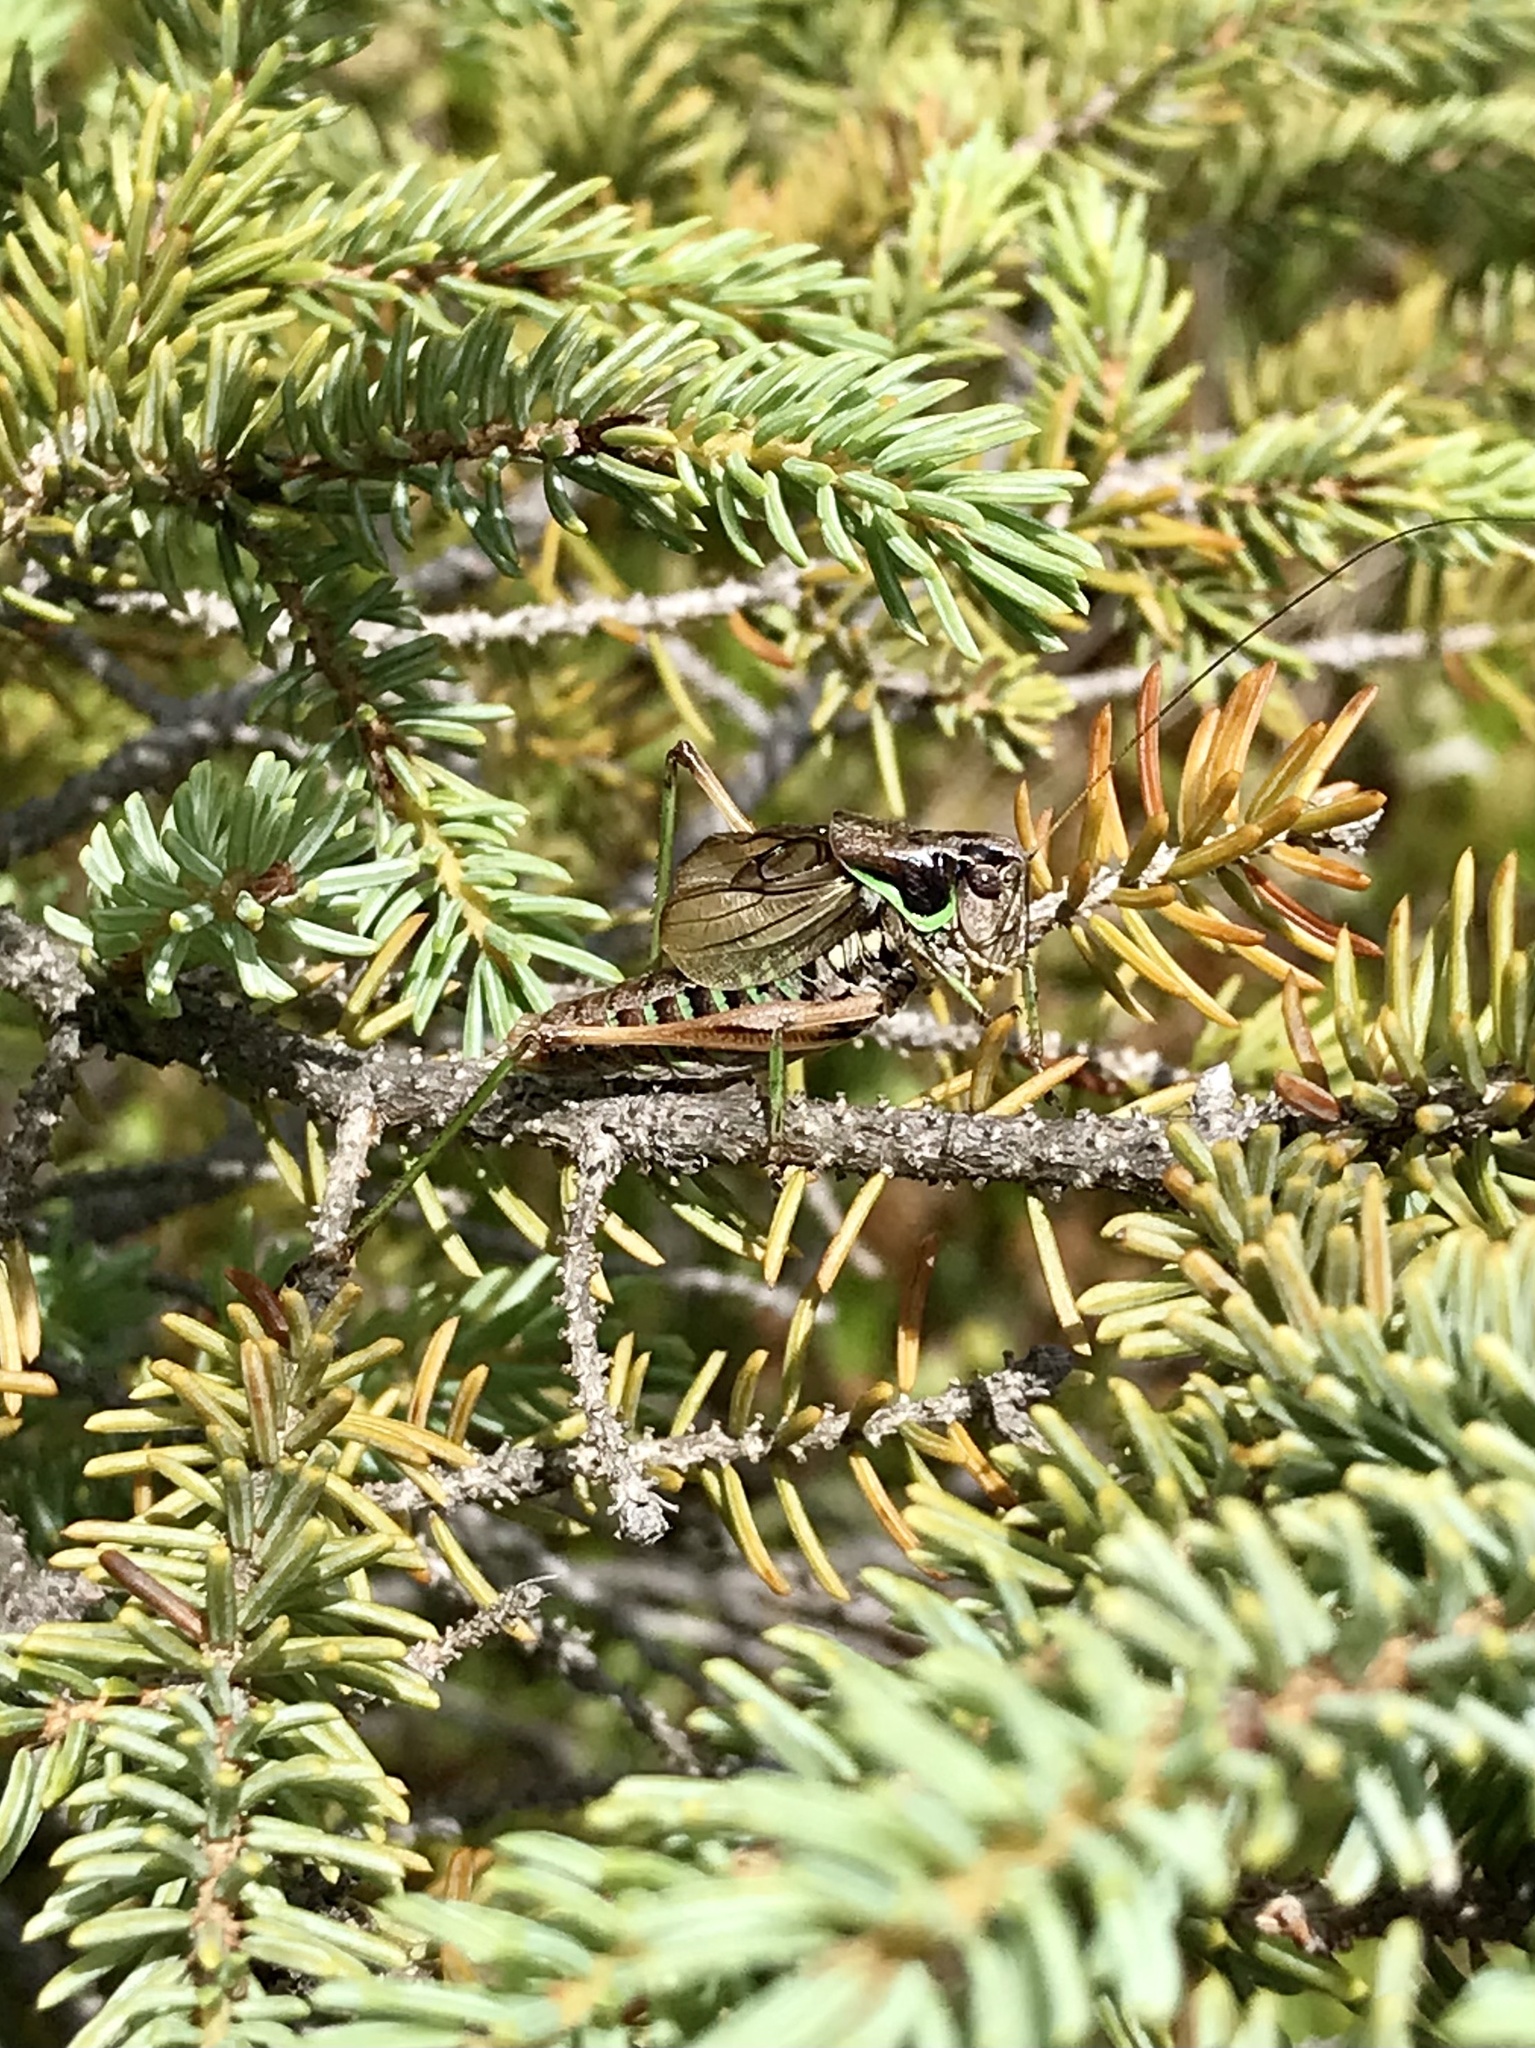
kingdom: Animalia
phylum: Arthropoda
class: Insecta
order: Orthoptera
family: Tettigoniidae
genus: Sphagniana
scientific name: Sphagniana sphagnorum
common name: Bog katydid
